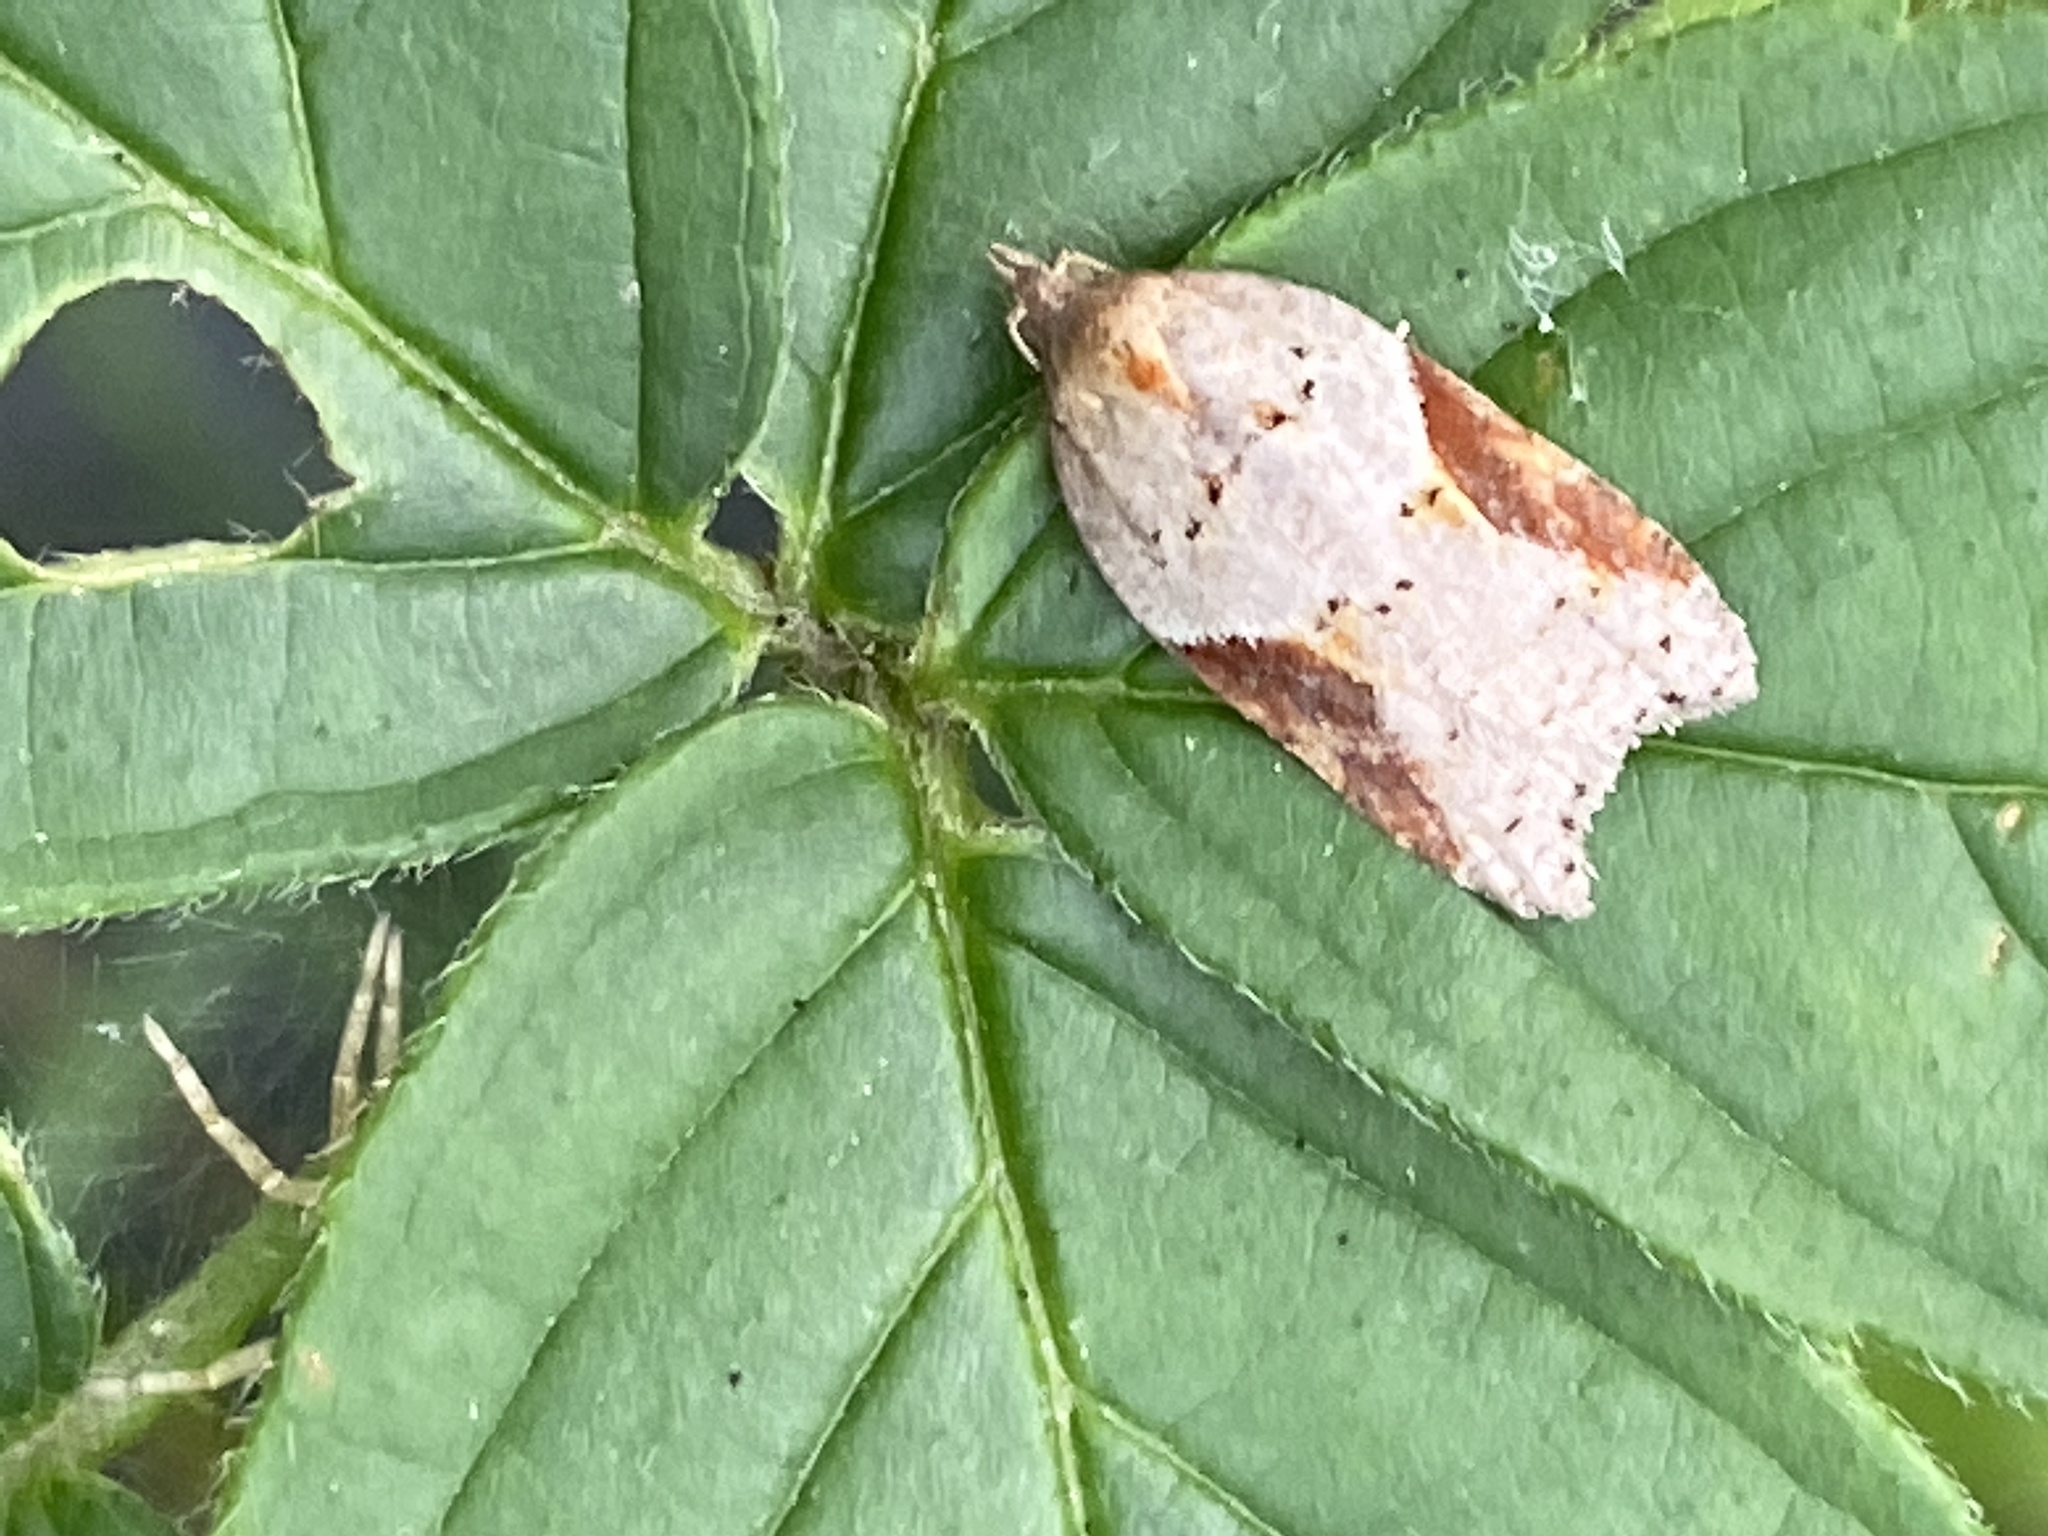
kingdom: Animalia
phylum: Arthropoda
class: Insecta
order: Lepidoptera
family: Tortricidae
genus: Acleris
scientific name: Acleris laterana
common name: Dark-triangle button
